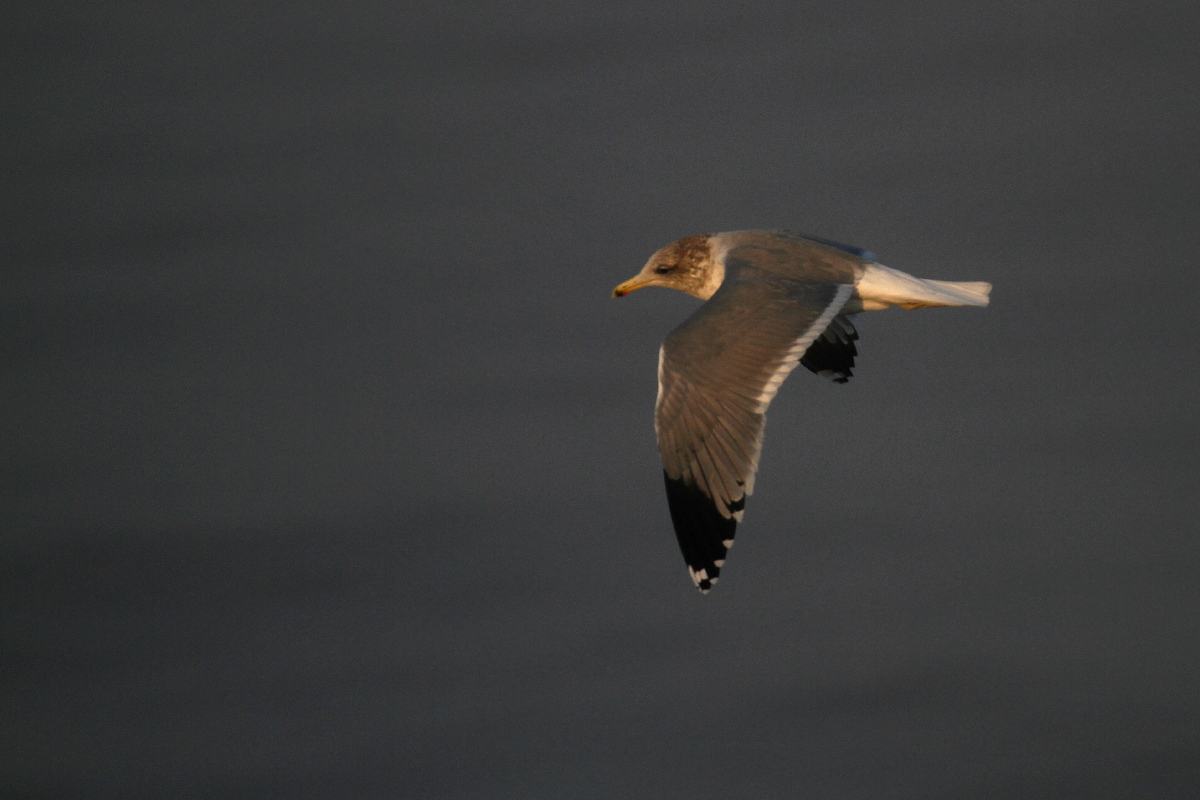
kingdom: Animalia
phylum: Chordata
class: Aves
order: Charadriiformes
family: Laridae
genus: Larus
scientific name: Larus californicus
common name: California gull
